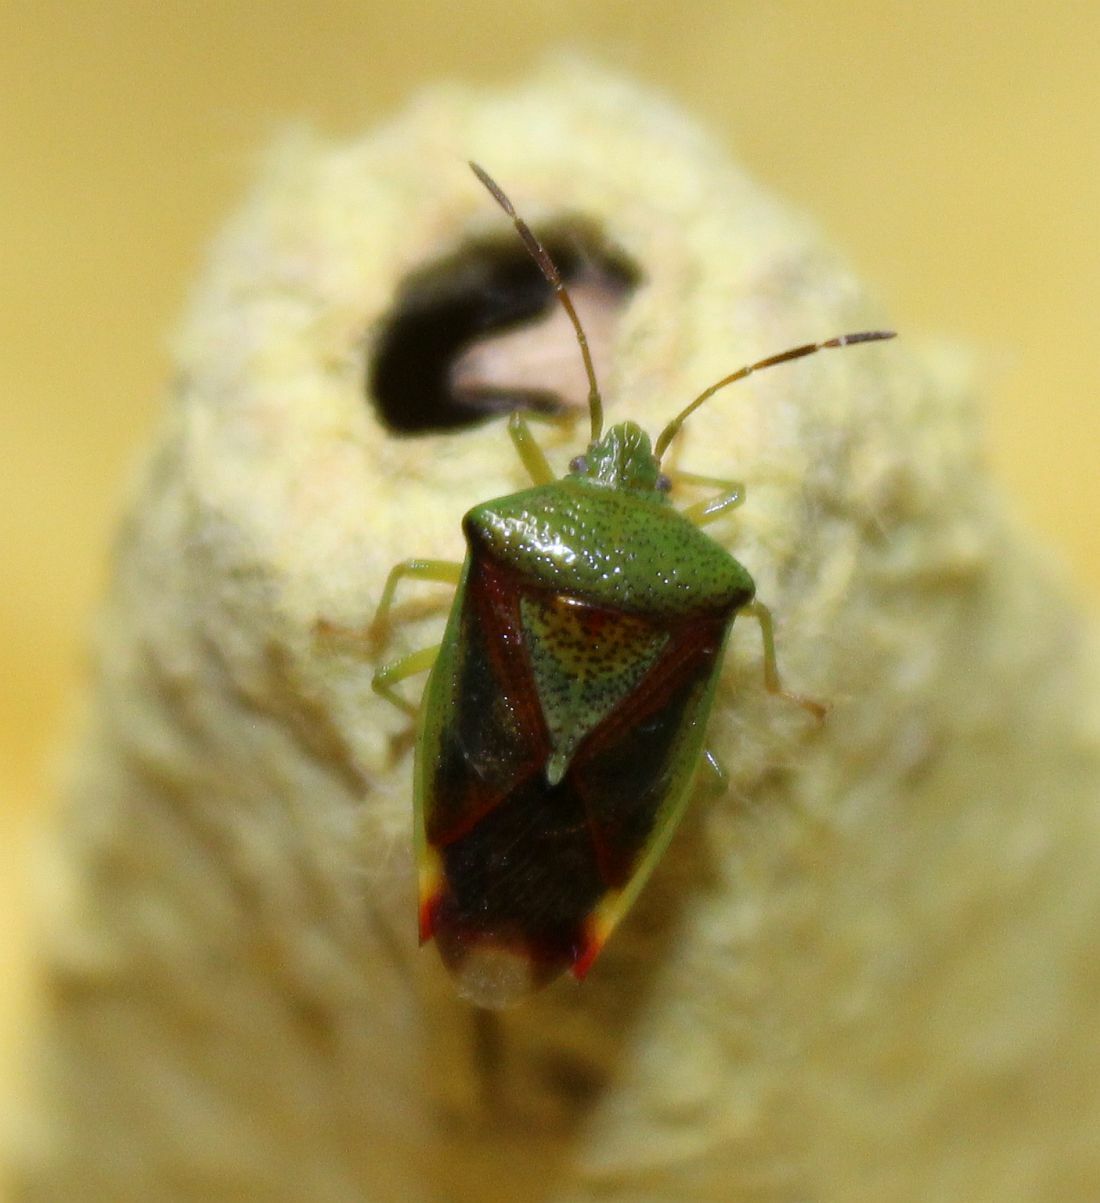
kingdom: Animalia
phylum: Arthropoda
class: Insecta
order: Hemiptera
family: Acanthosomatidae
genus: Elasmostethus
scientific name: Elasmostethus interstinctus
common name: Birch shieldbug
